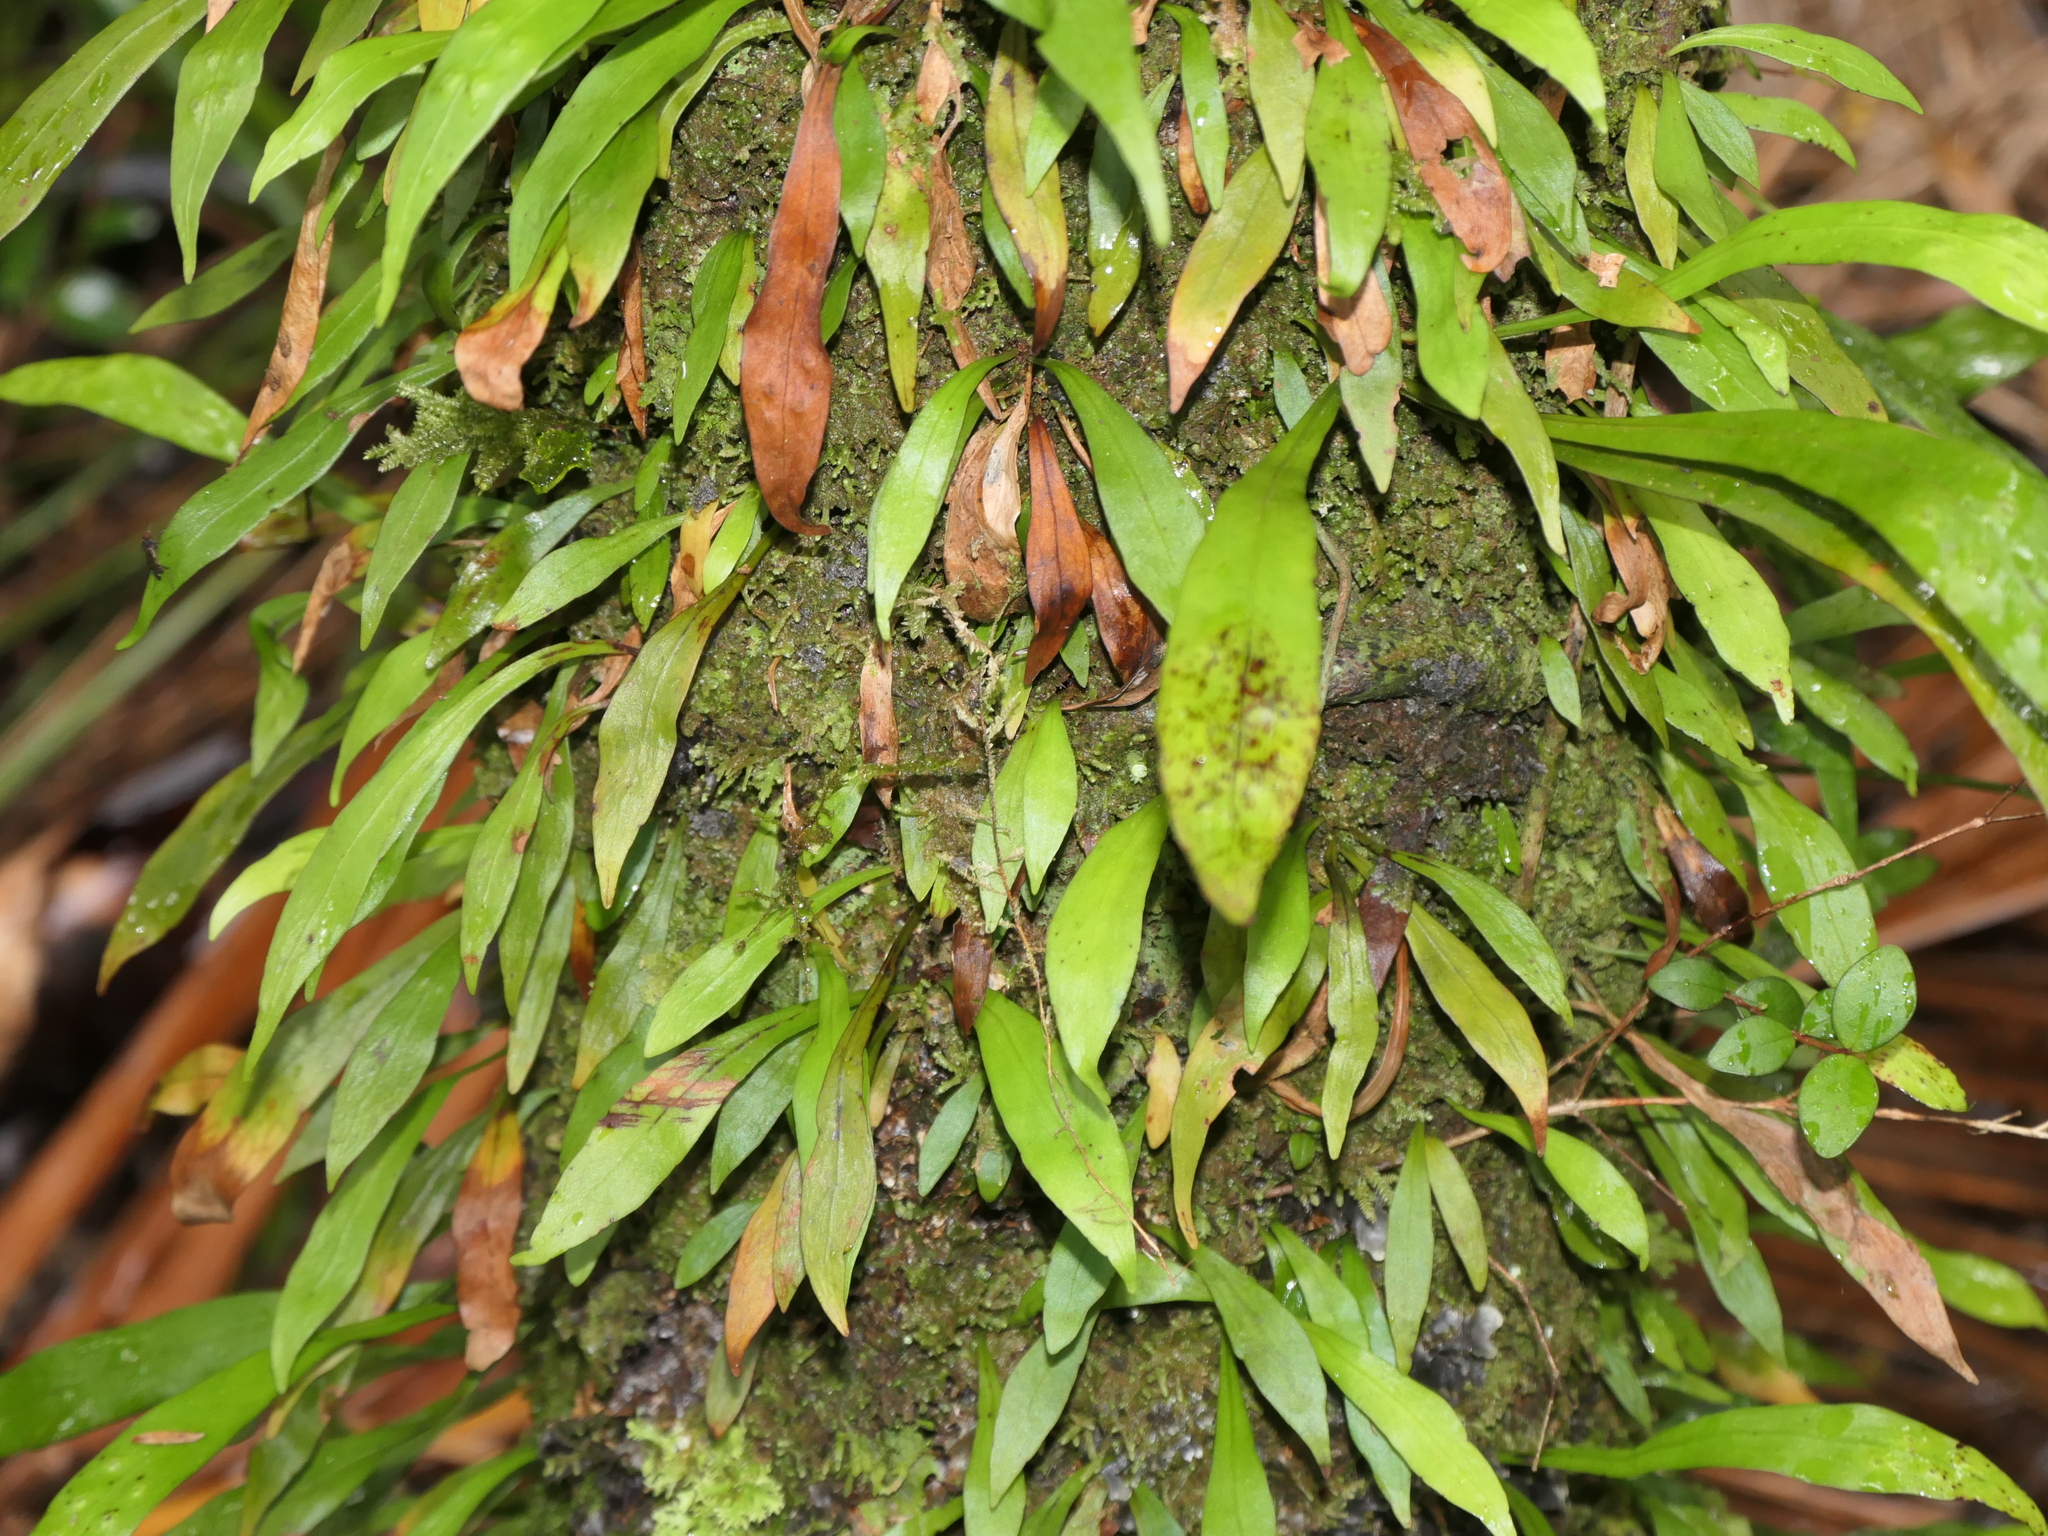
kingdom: Plantae
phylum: Tracheophyta
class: Polypodiopsida
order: Polypodiales
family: Polypodiaceae
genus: Loxogramme
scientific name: Loxogramme dictyopteris
